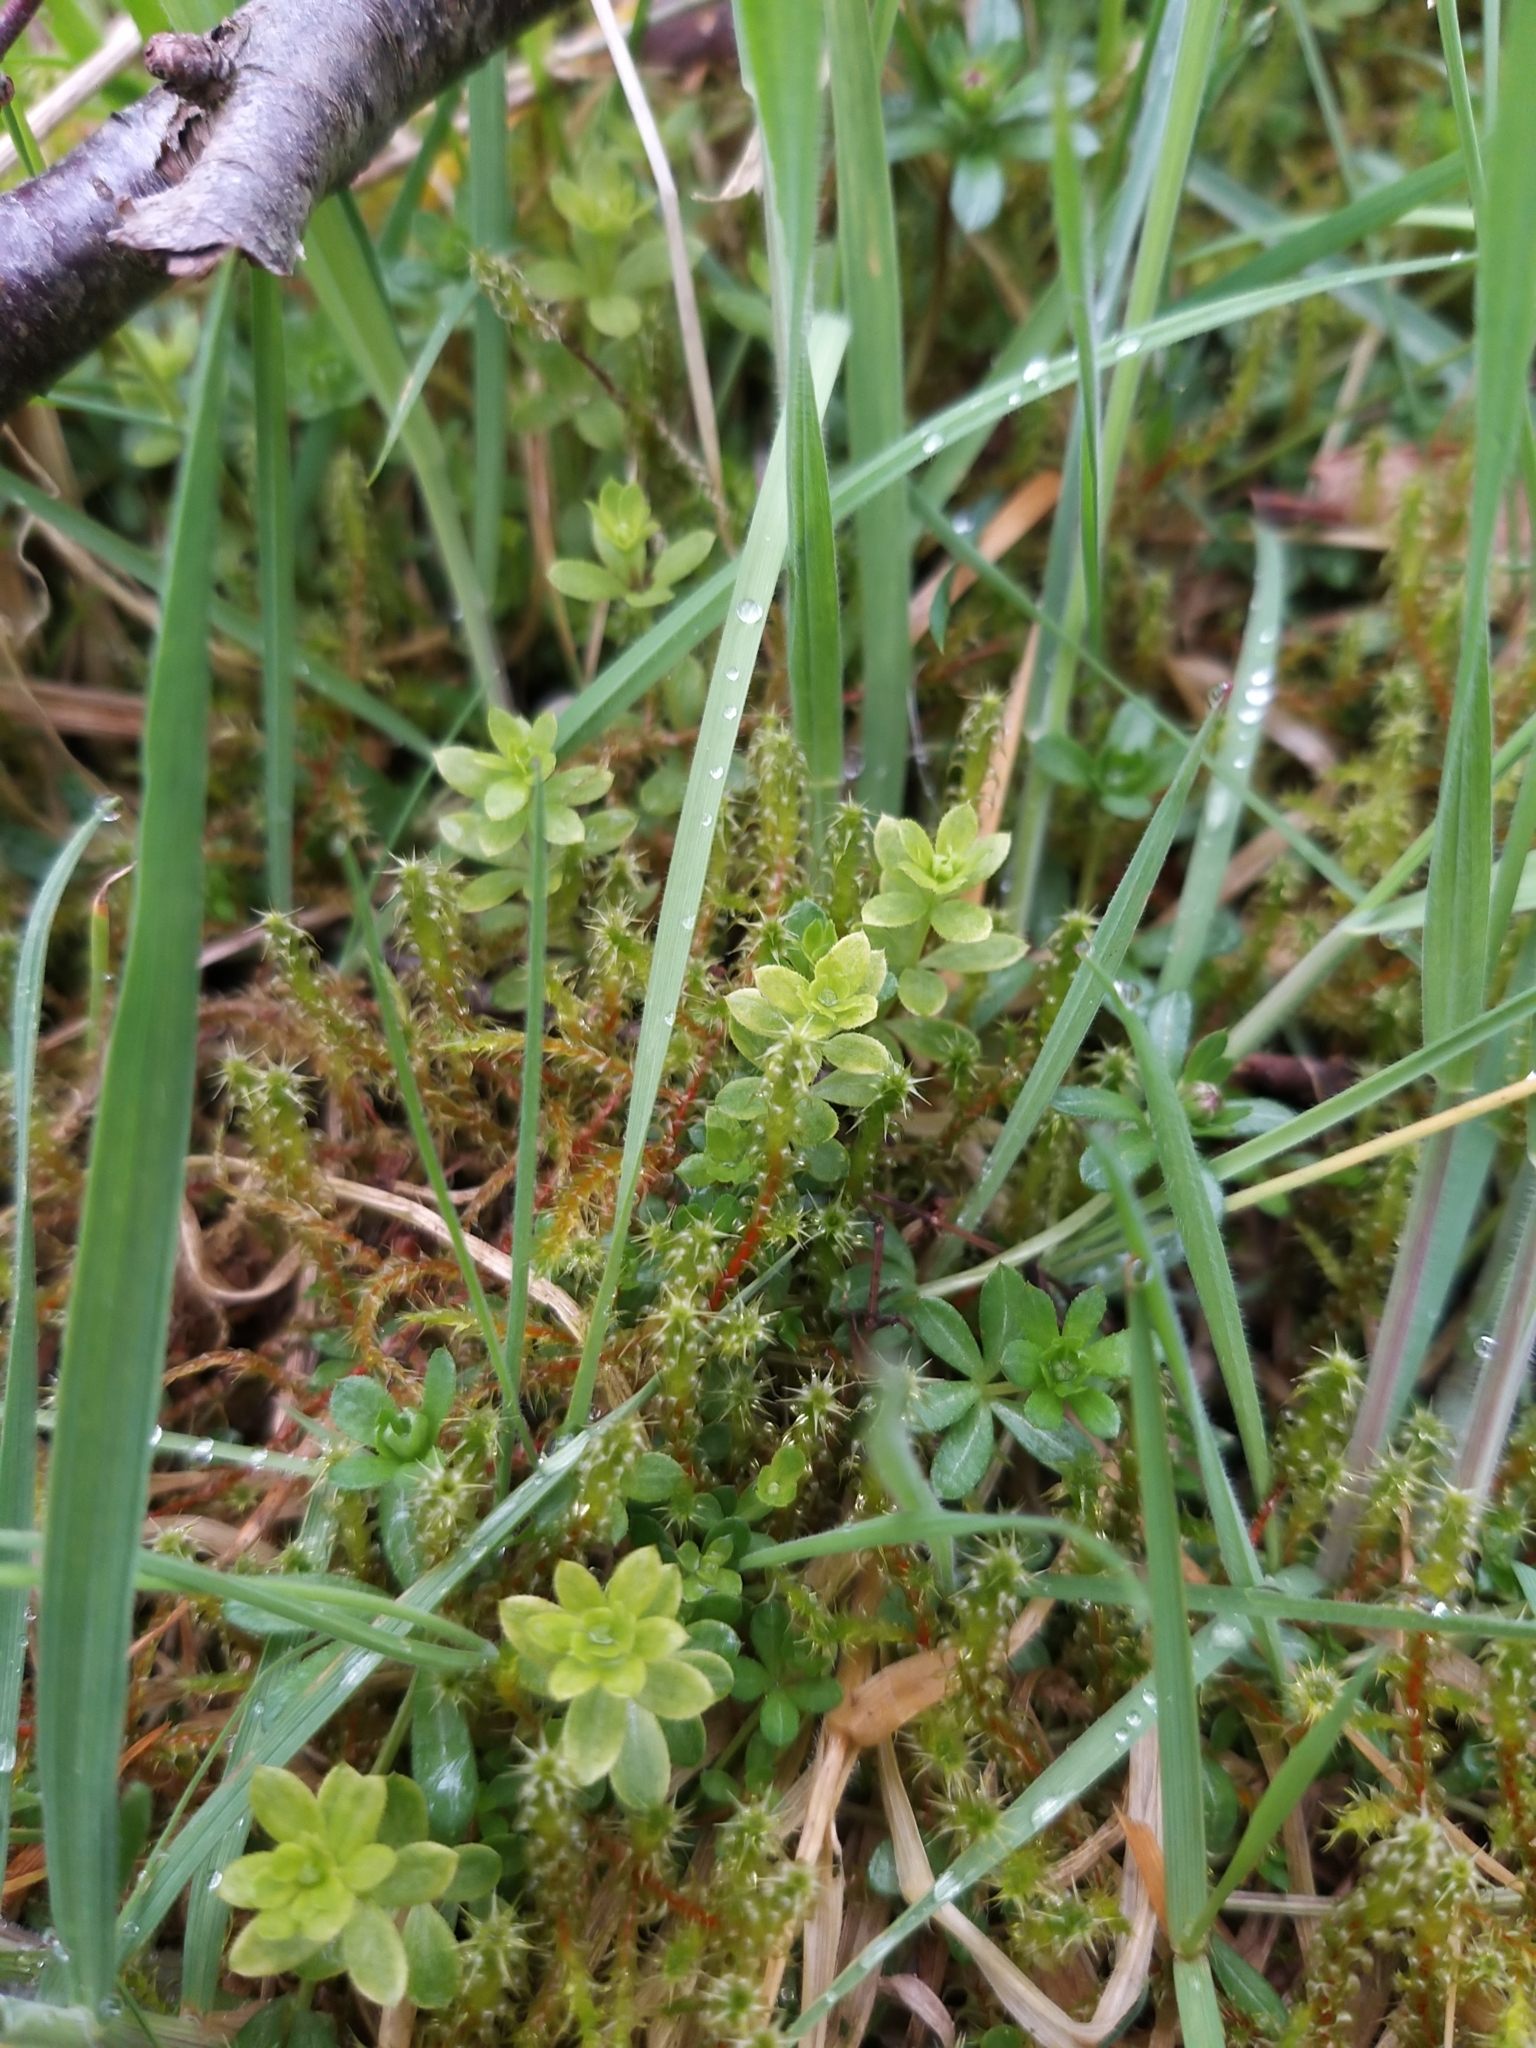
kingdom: Plantae
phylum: Tracheophyta
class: Magnoliopsida
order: Gentianales
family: Rubiaceae
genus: Galium
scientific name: Galium saxatile
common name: Heath bedstraw
